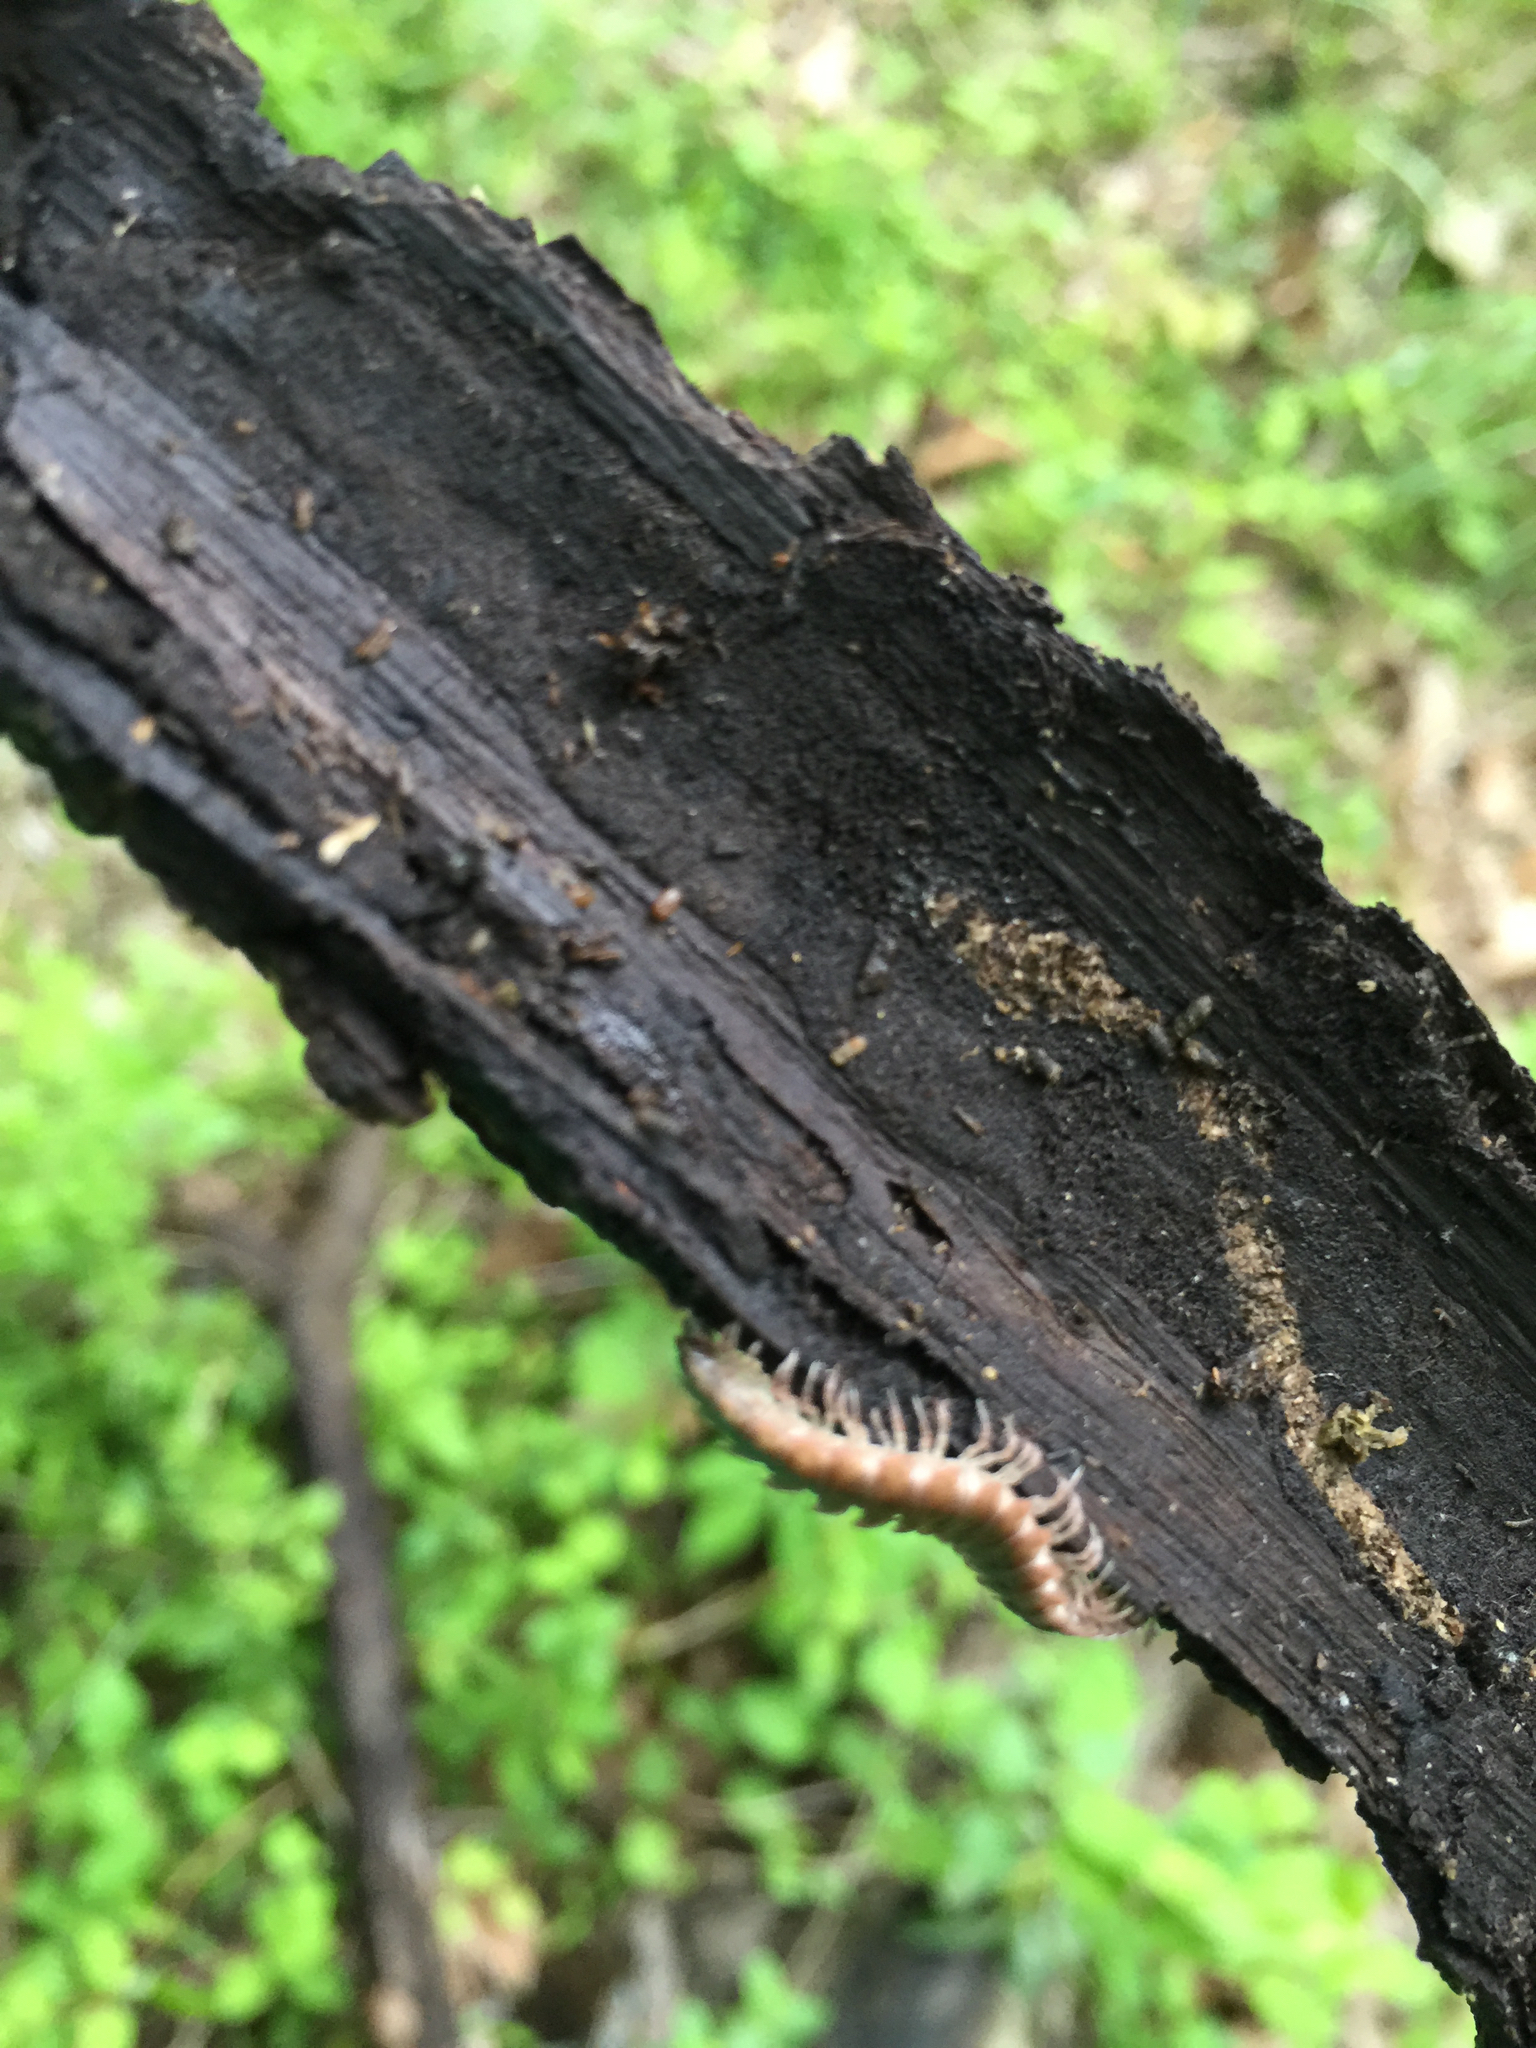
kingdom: Animalia
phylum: Arthropoda
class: Diplopoda
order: Polydesmida
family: Polydesmidae
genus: Pseudopolydesmus
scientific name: Pseudopolydesmus serratus
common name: Common pink flat-back millipede
